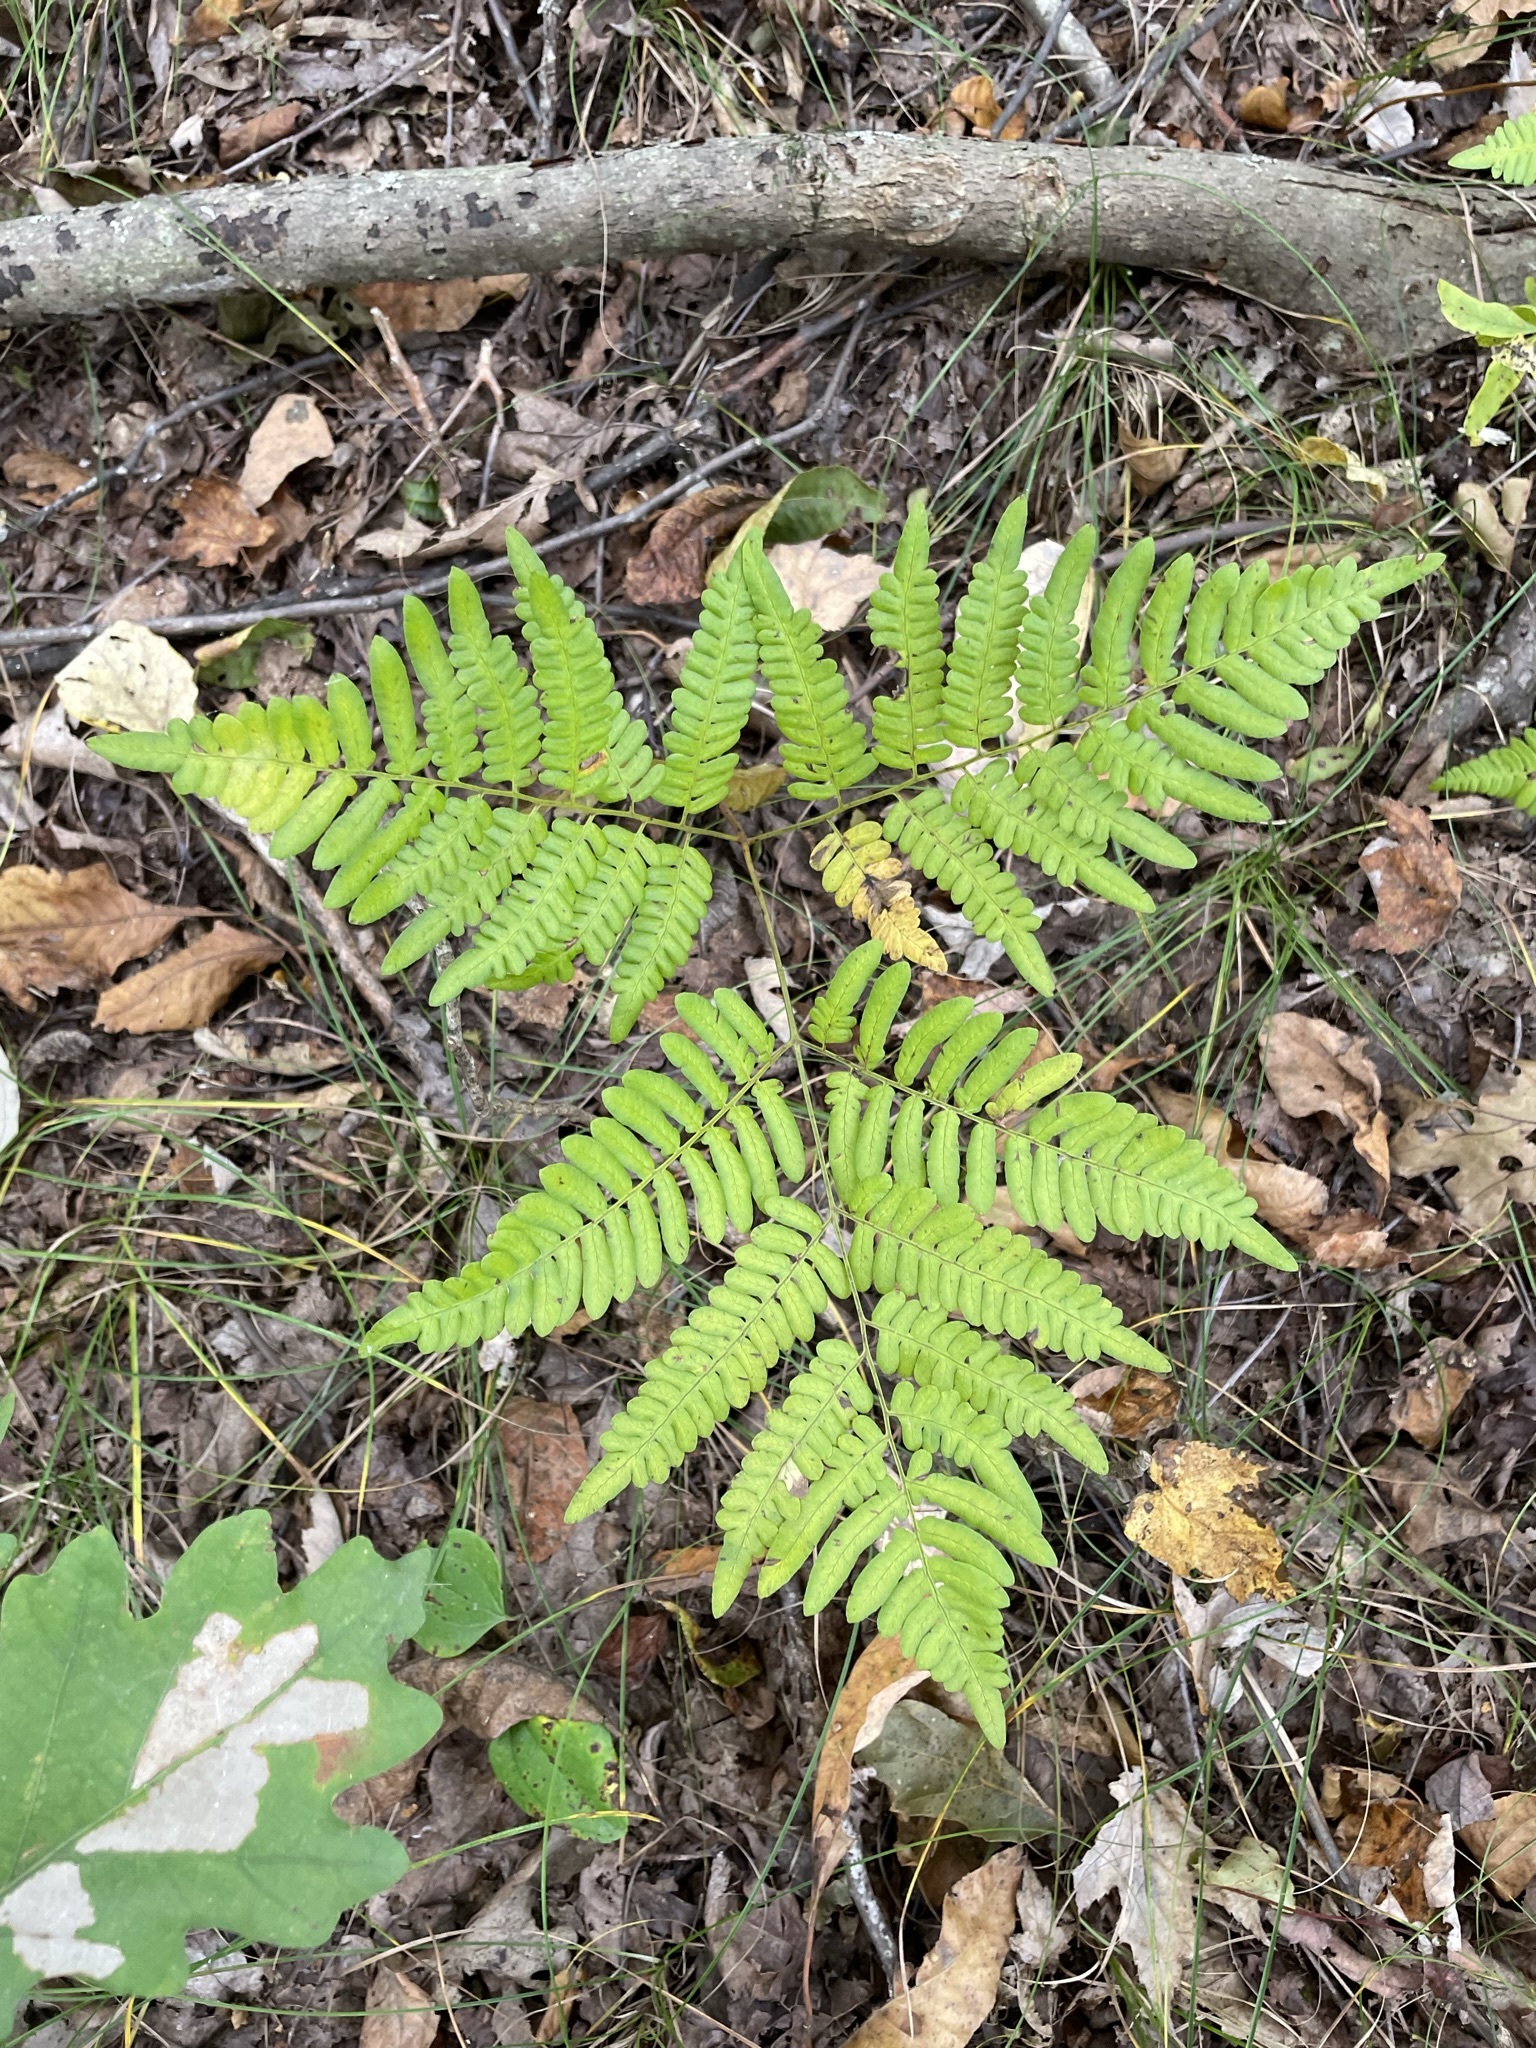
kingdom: Plantae
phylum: Tracheophyta
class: Polypodiopsida
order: Polypodiales
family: Dennstaedtiaceae
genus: Pteridium
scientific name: Pteridium aquilinum
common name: Bracken
